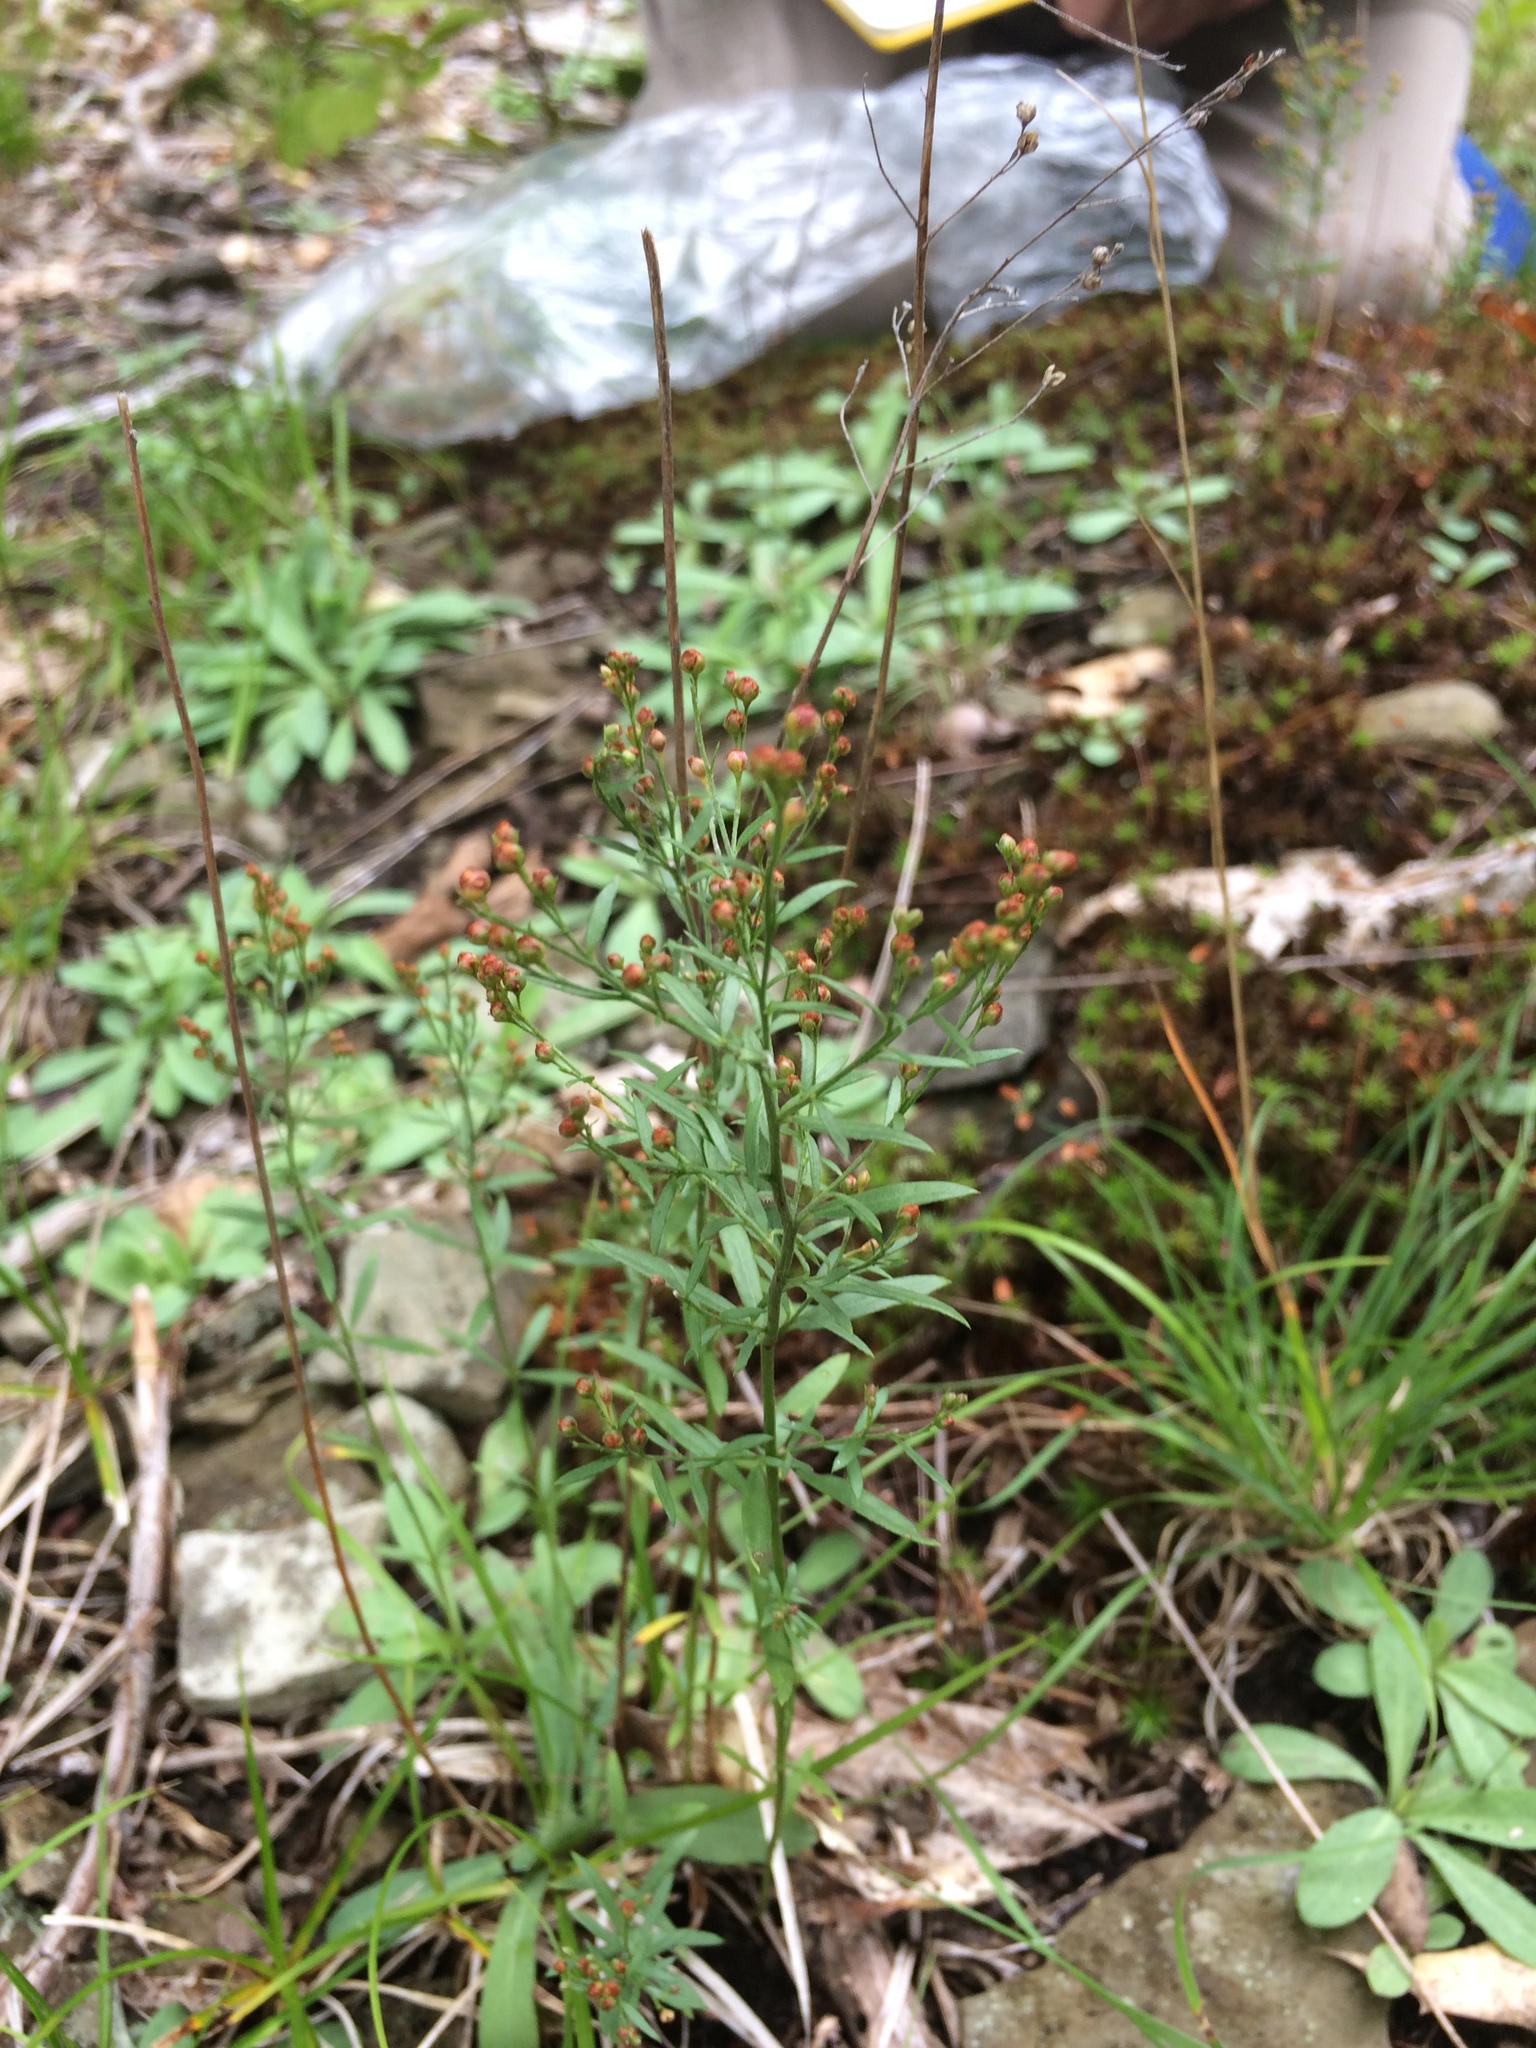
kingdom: Plantae
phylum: Tracheophyta
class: Magnoliopsida
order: Malvales
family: Cistaceae
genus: Lechea
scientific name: Lechea intermedia
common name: Intermediate pinweed
